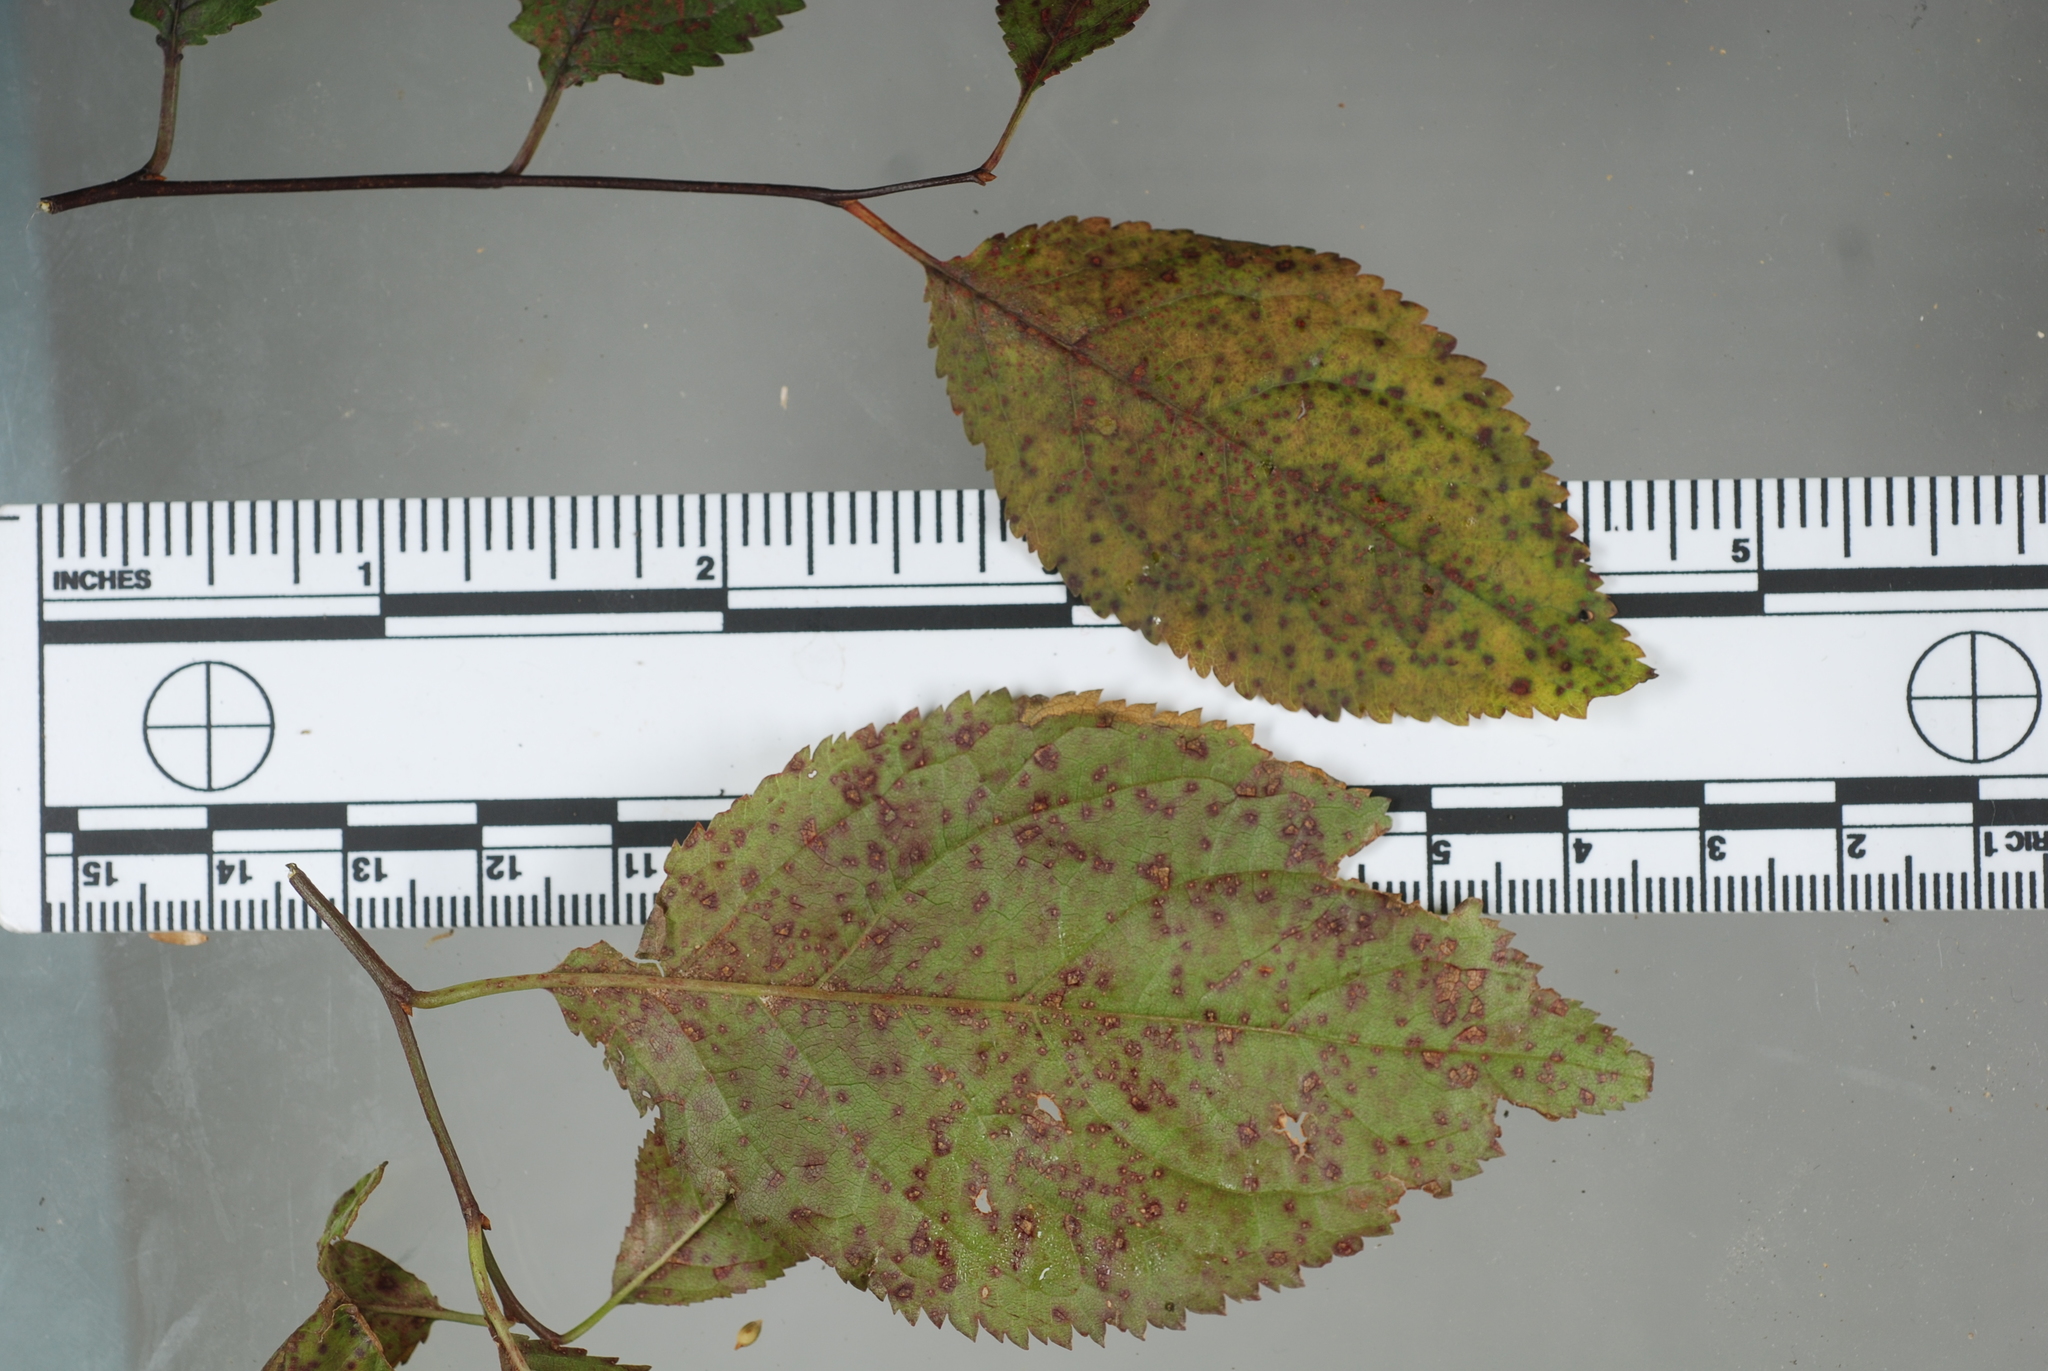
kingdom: Fungi
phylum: Basidiomycota
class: Pucciniomycetes
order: Pucciniales
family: Tranzscheliaceae
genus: Tranzschelia
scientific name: Tranzschelia discolor
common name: Plum rust
